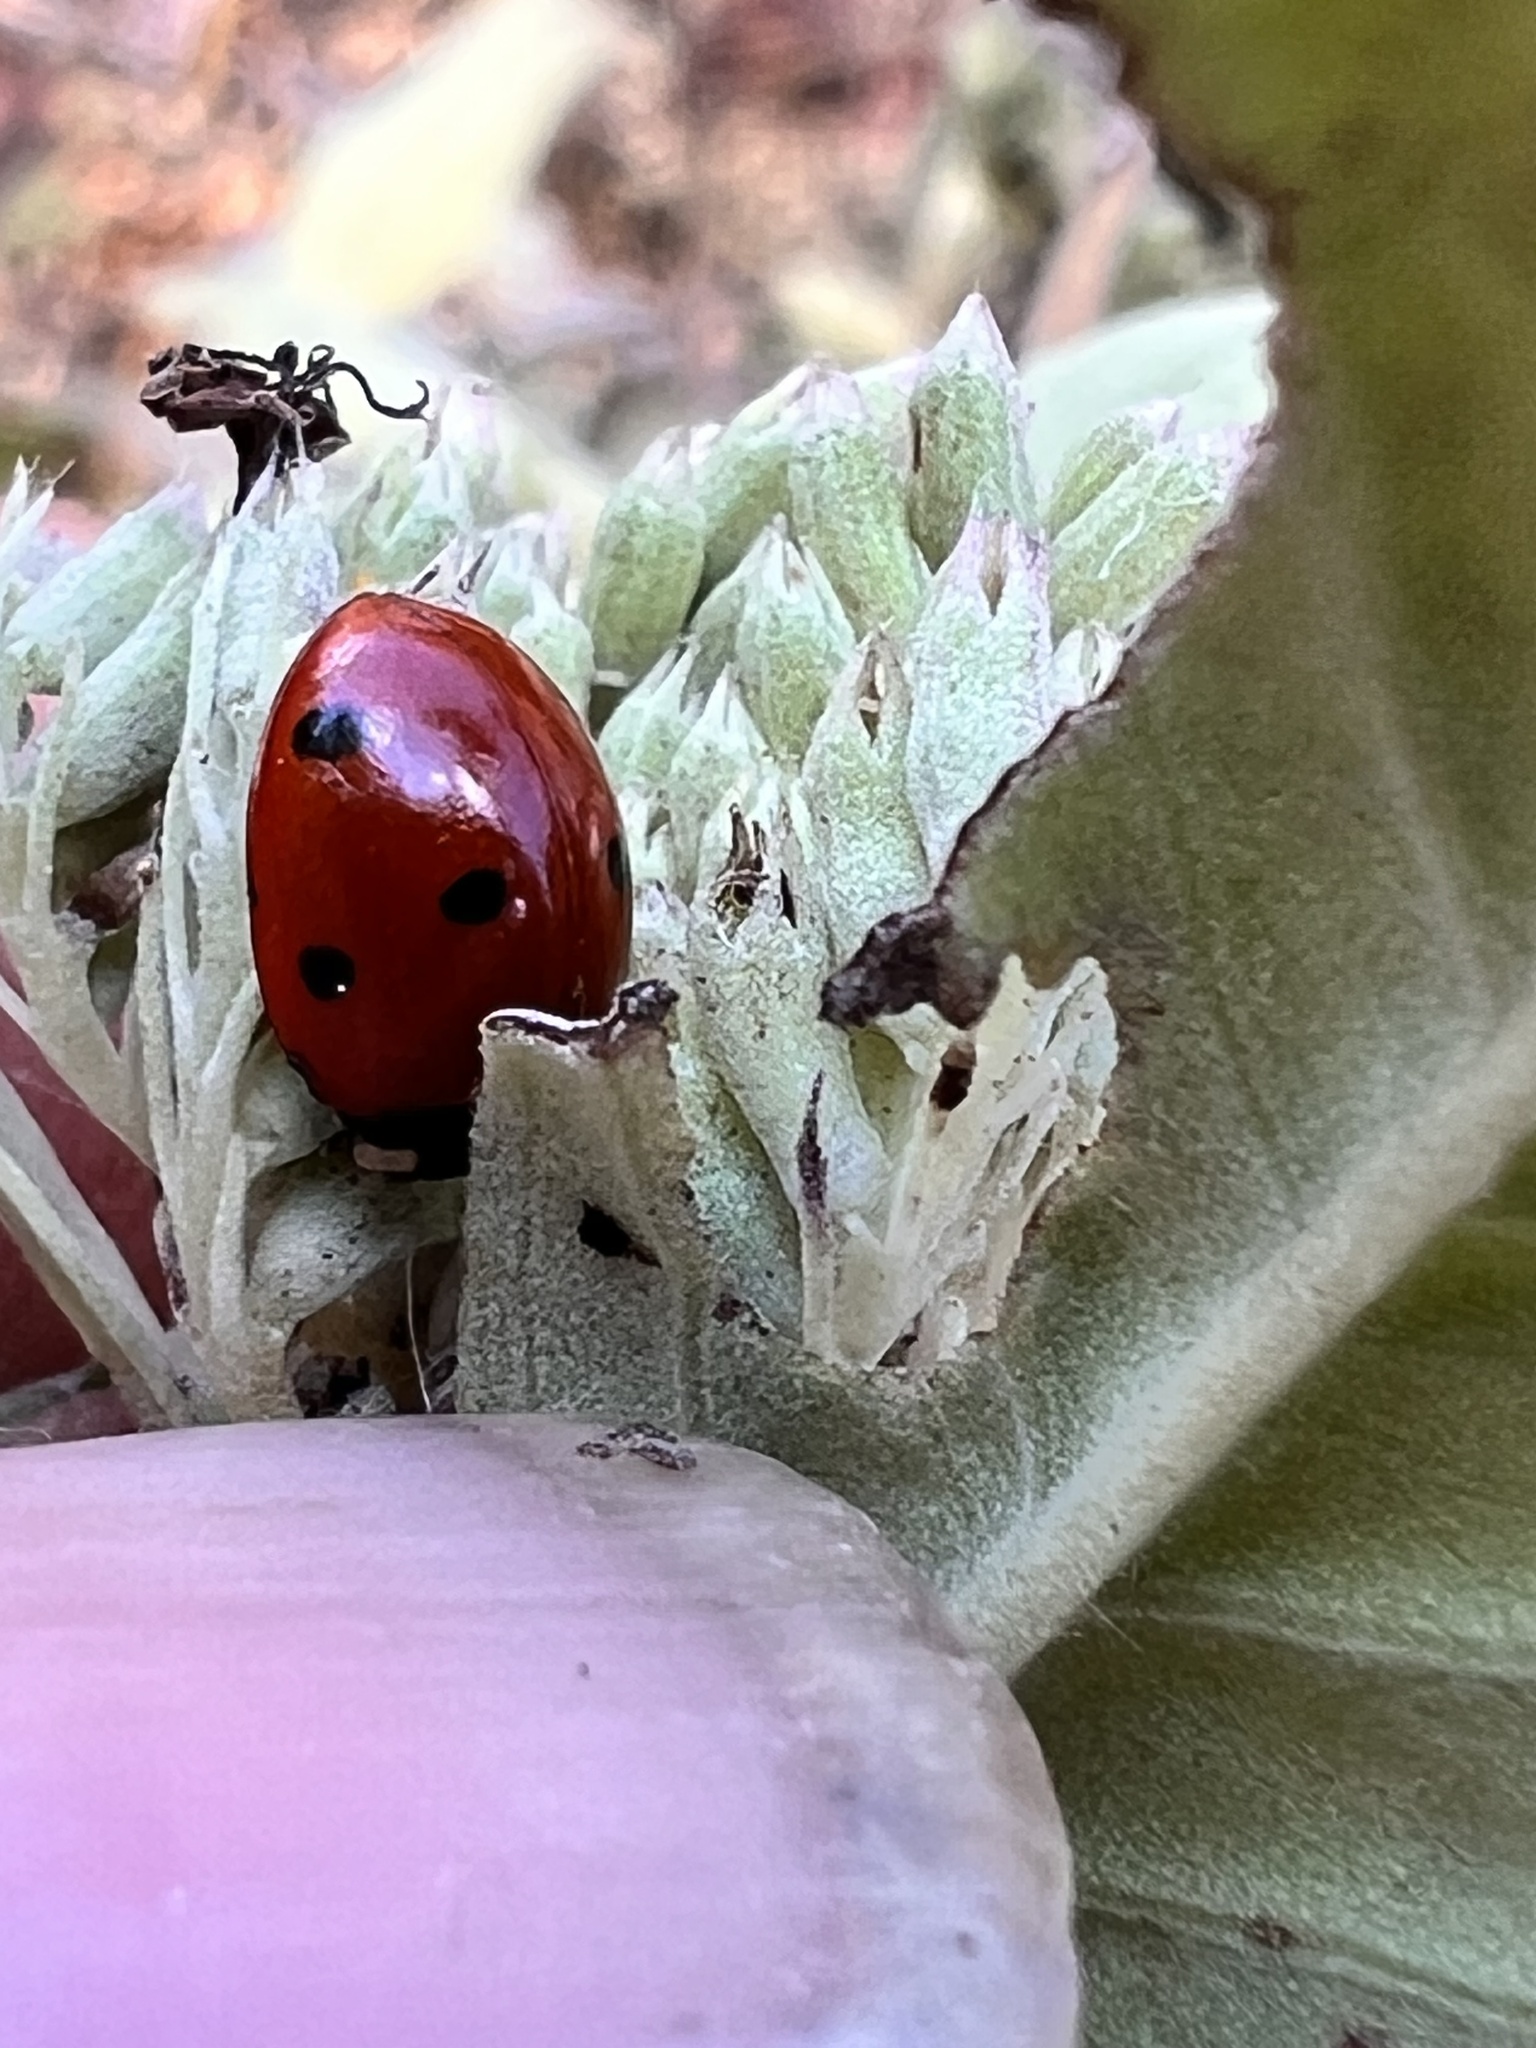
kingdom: Animalia
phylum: Arthropoda
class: Insecta
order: Coleoptera
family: Coccinellidae
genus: Coccinella
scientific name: Coccinella septempunctata
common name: Sevenspotted lady beetle
